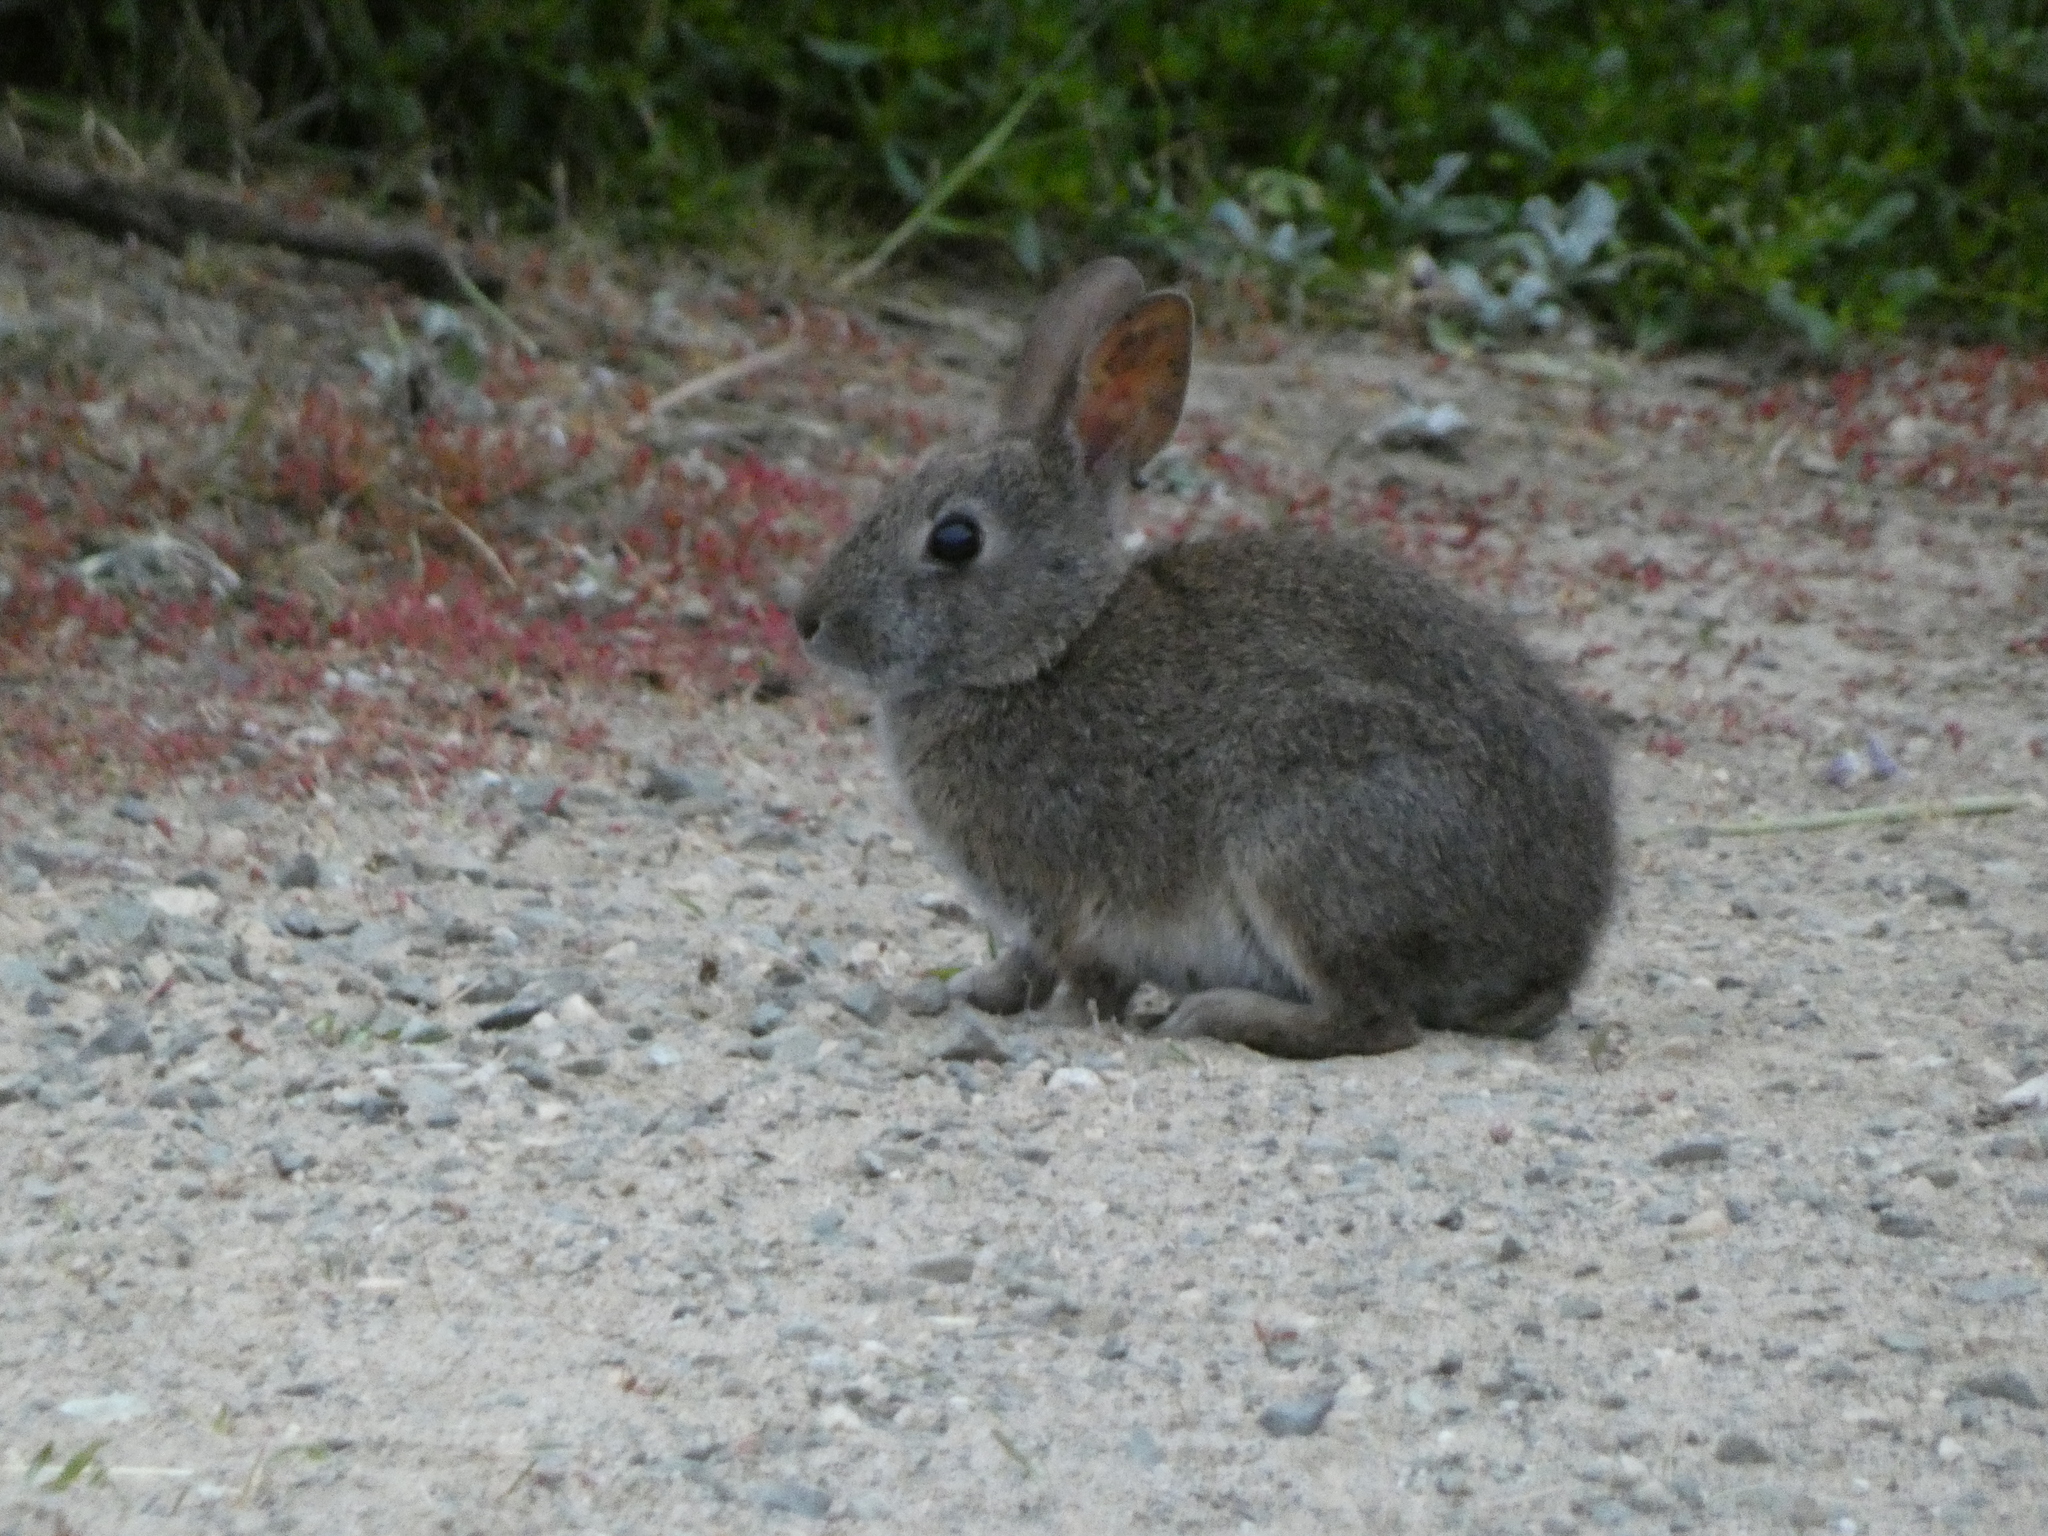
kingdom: Animalia
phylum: Chordata
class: Mammalia
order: Lagomorpha
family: Leporidae
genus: Sylvilagus
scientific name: Sylvilagus bachmani
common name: Brush rabbit
